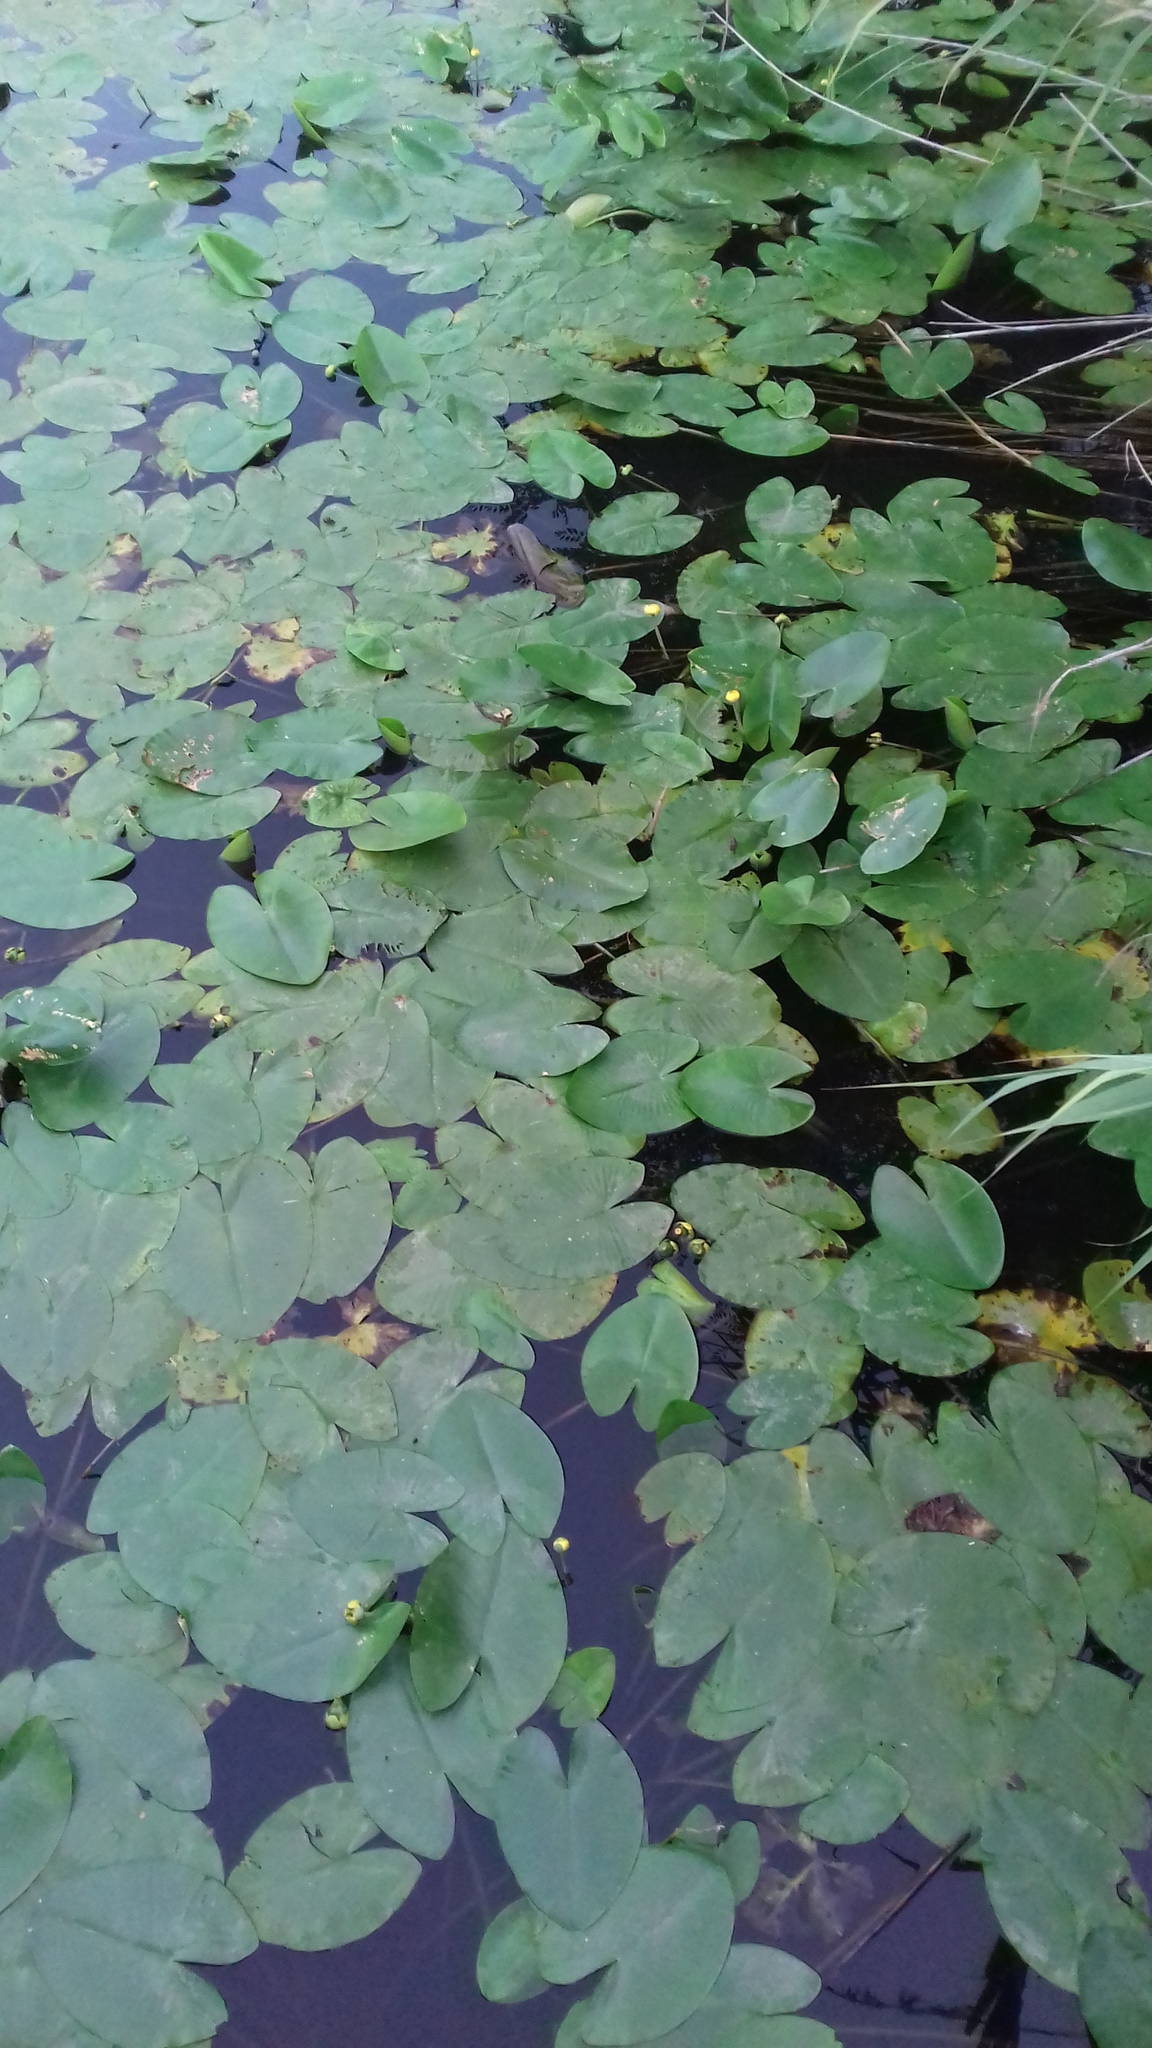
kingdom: Plantae
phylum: Tracheophyta
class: Magnoliopsida
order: Nymphaeales
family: Nymphaeaceae
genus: Nuphar
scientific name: Nuphar lutea
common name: Yellow water-lily
